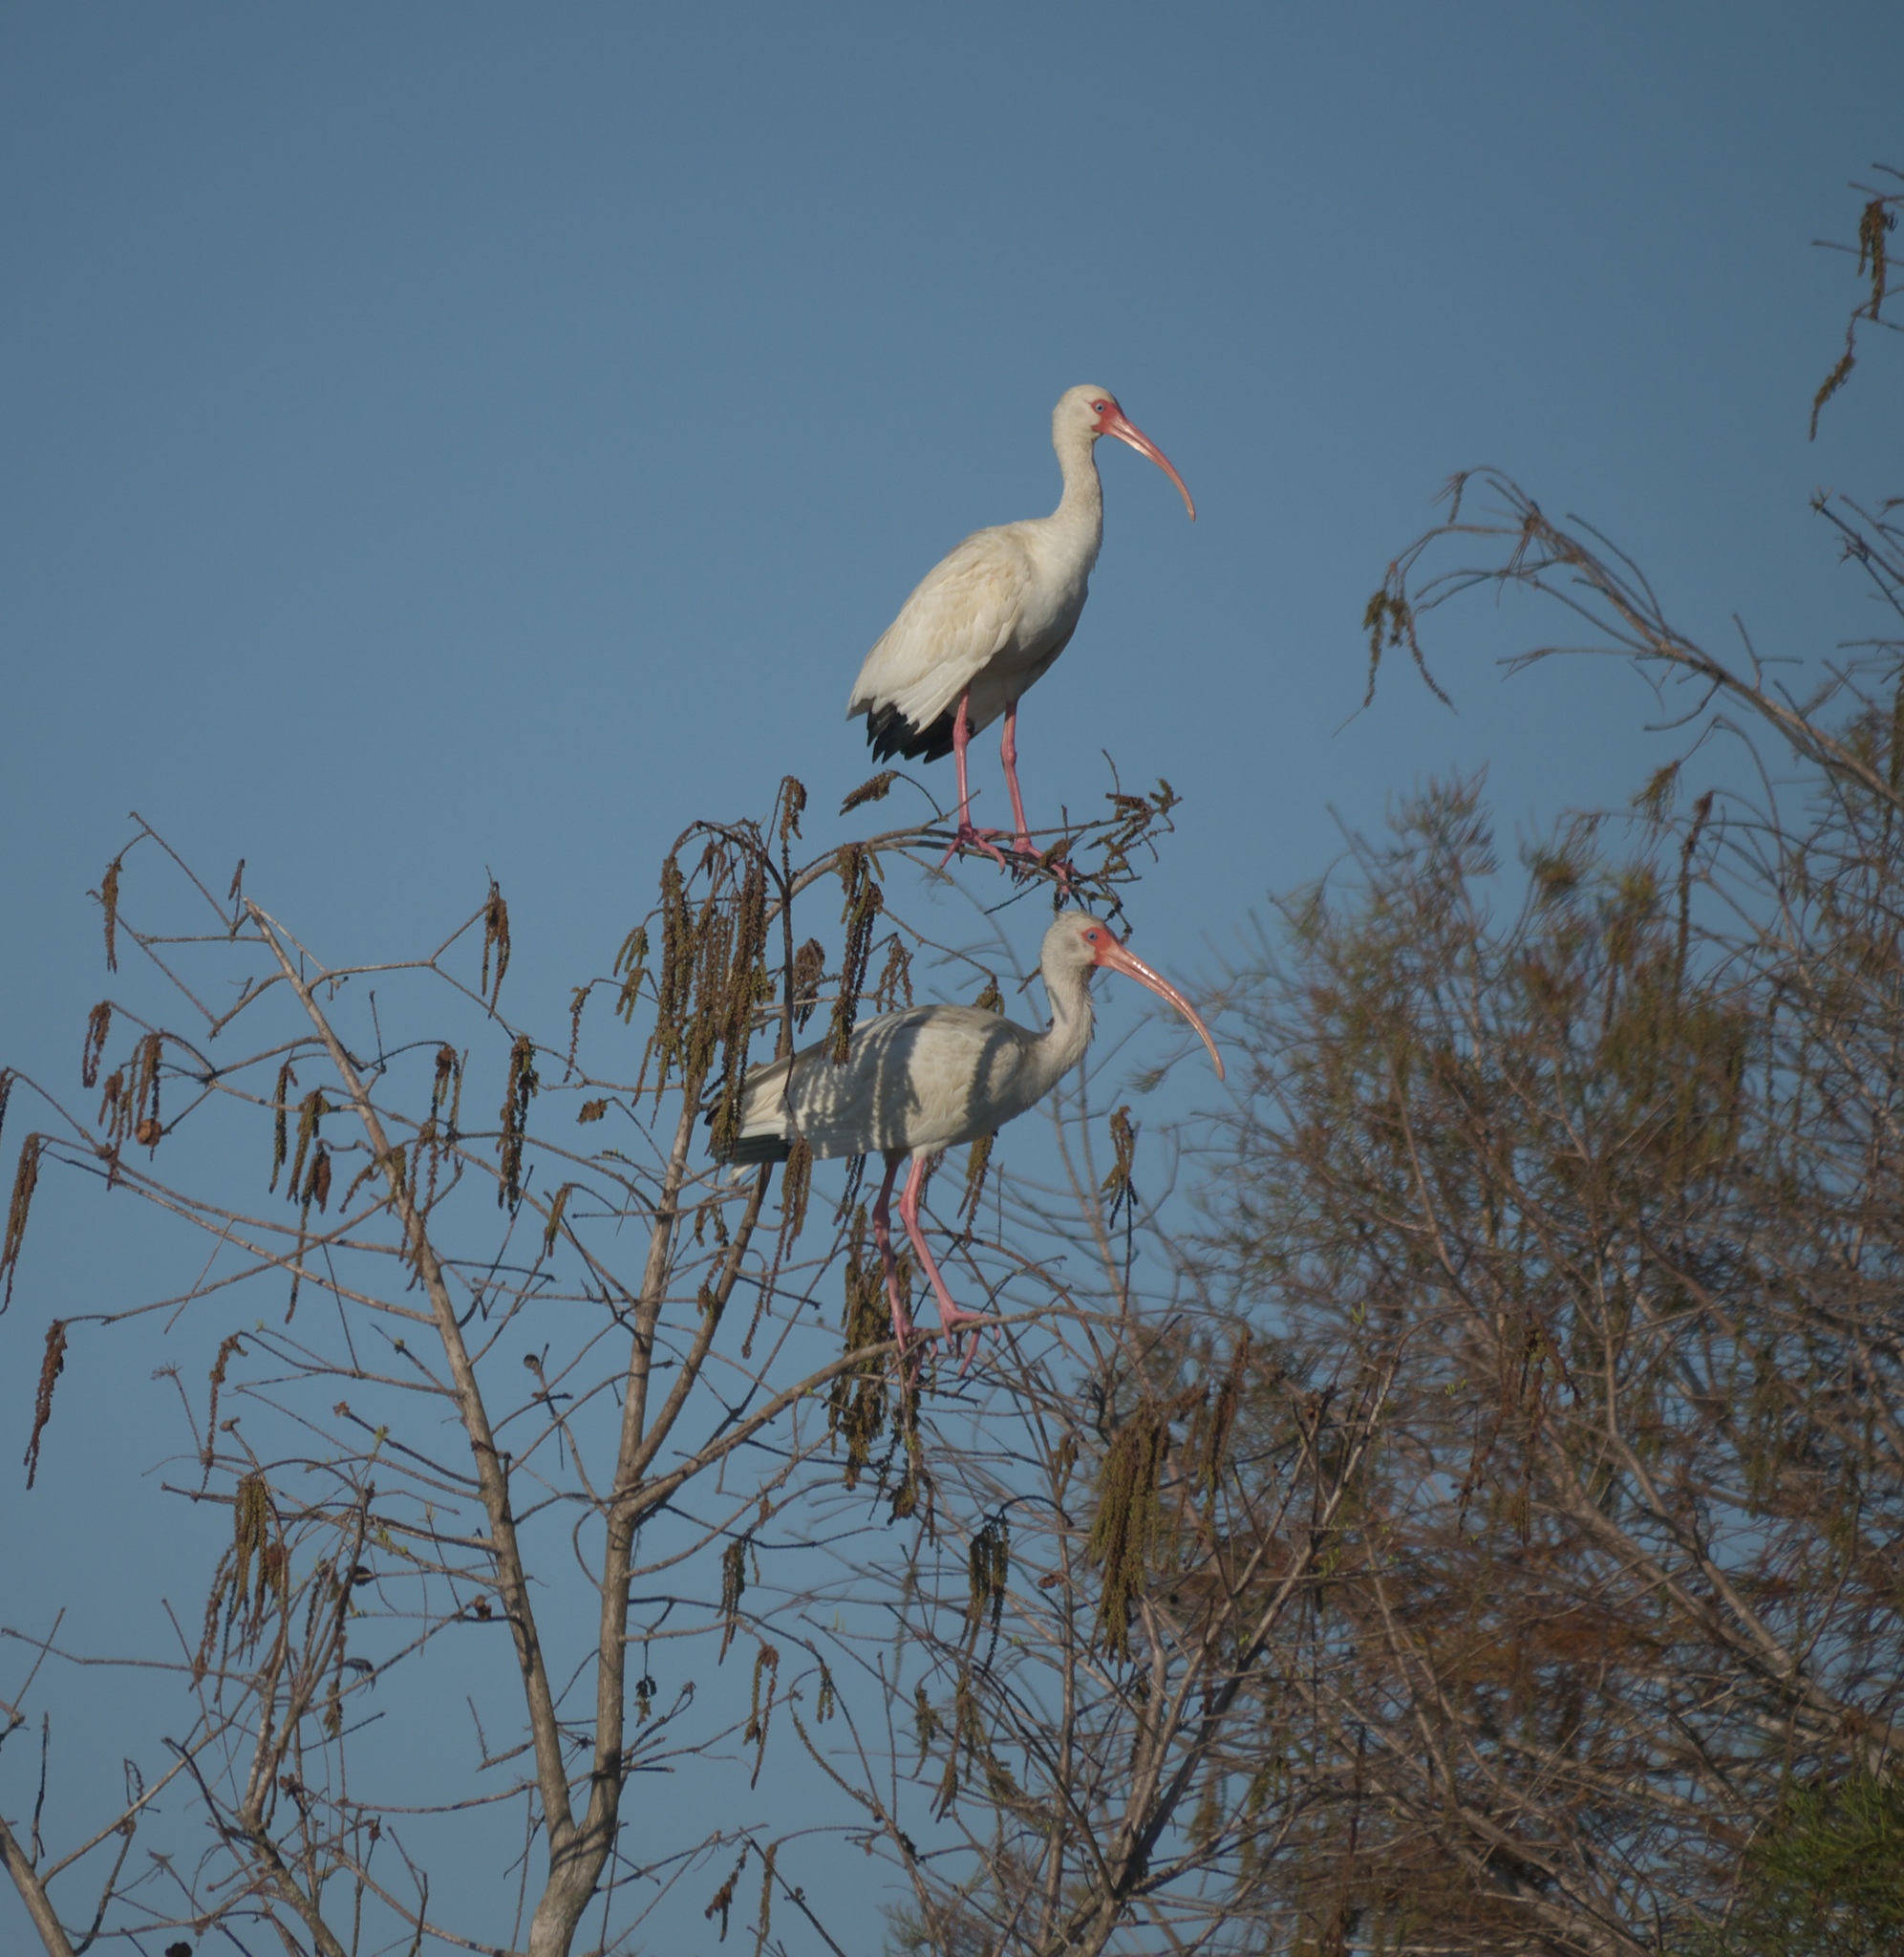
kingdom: Animalia
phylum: Chordata
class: Aves
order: Pelecaniformes
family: Threskiornithidae
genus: Eudocimus
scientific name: Eudocimus albus
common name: White ibis
